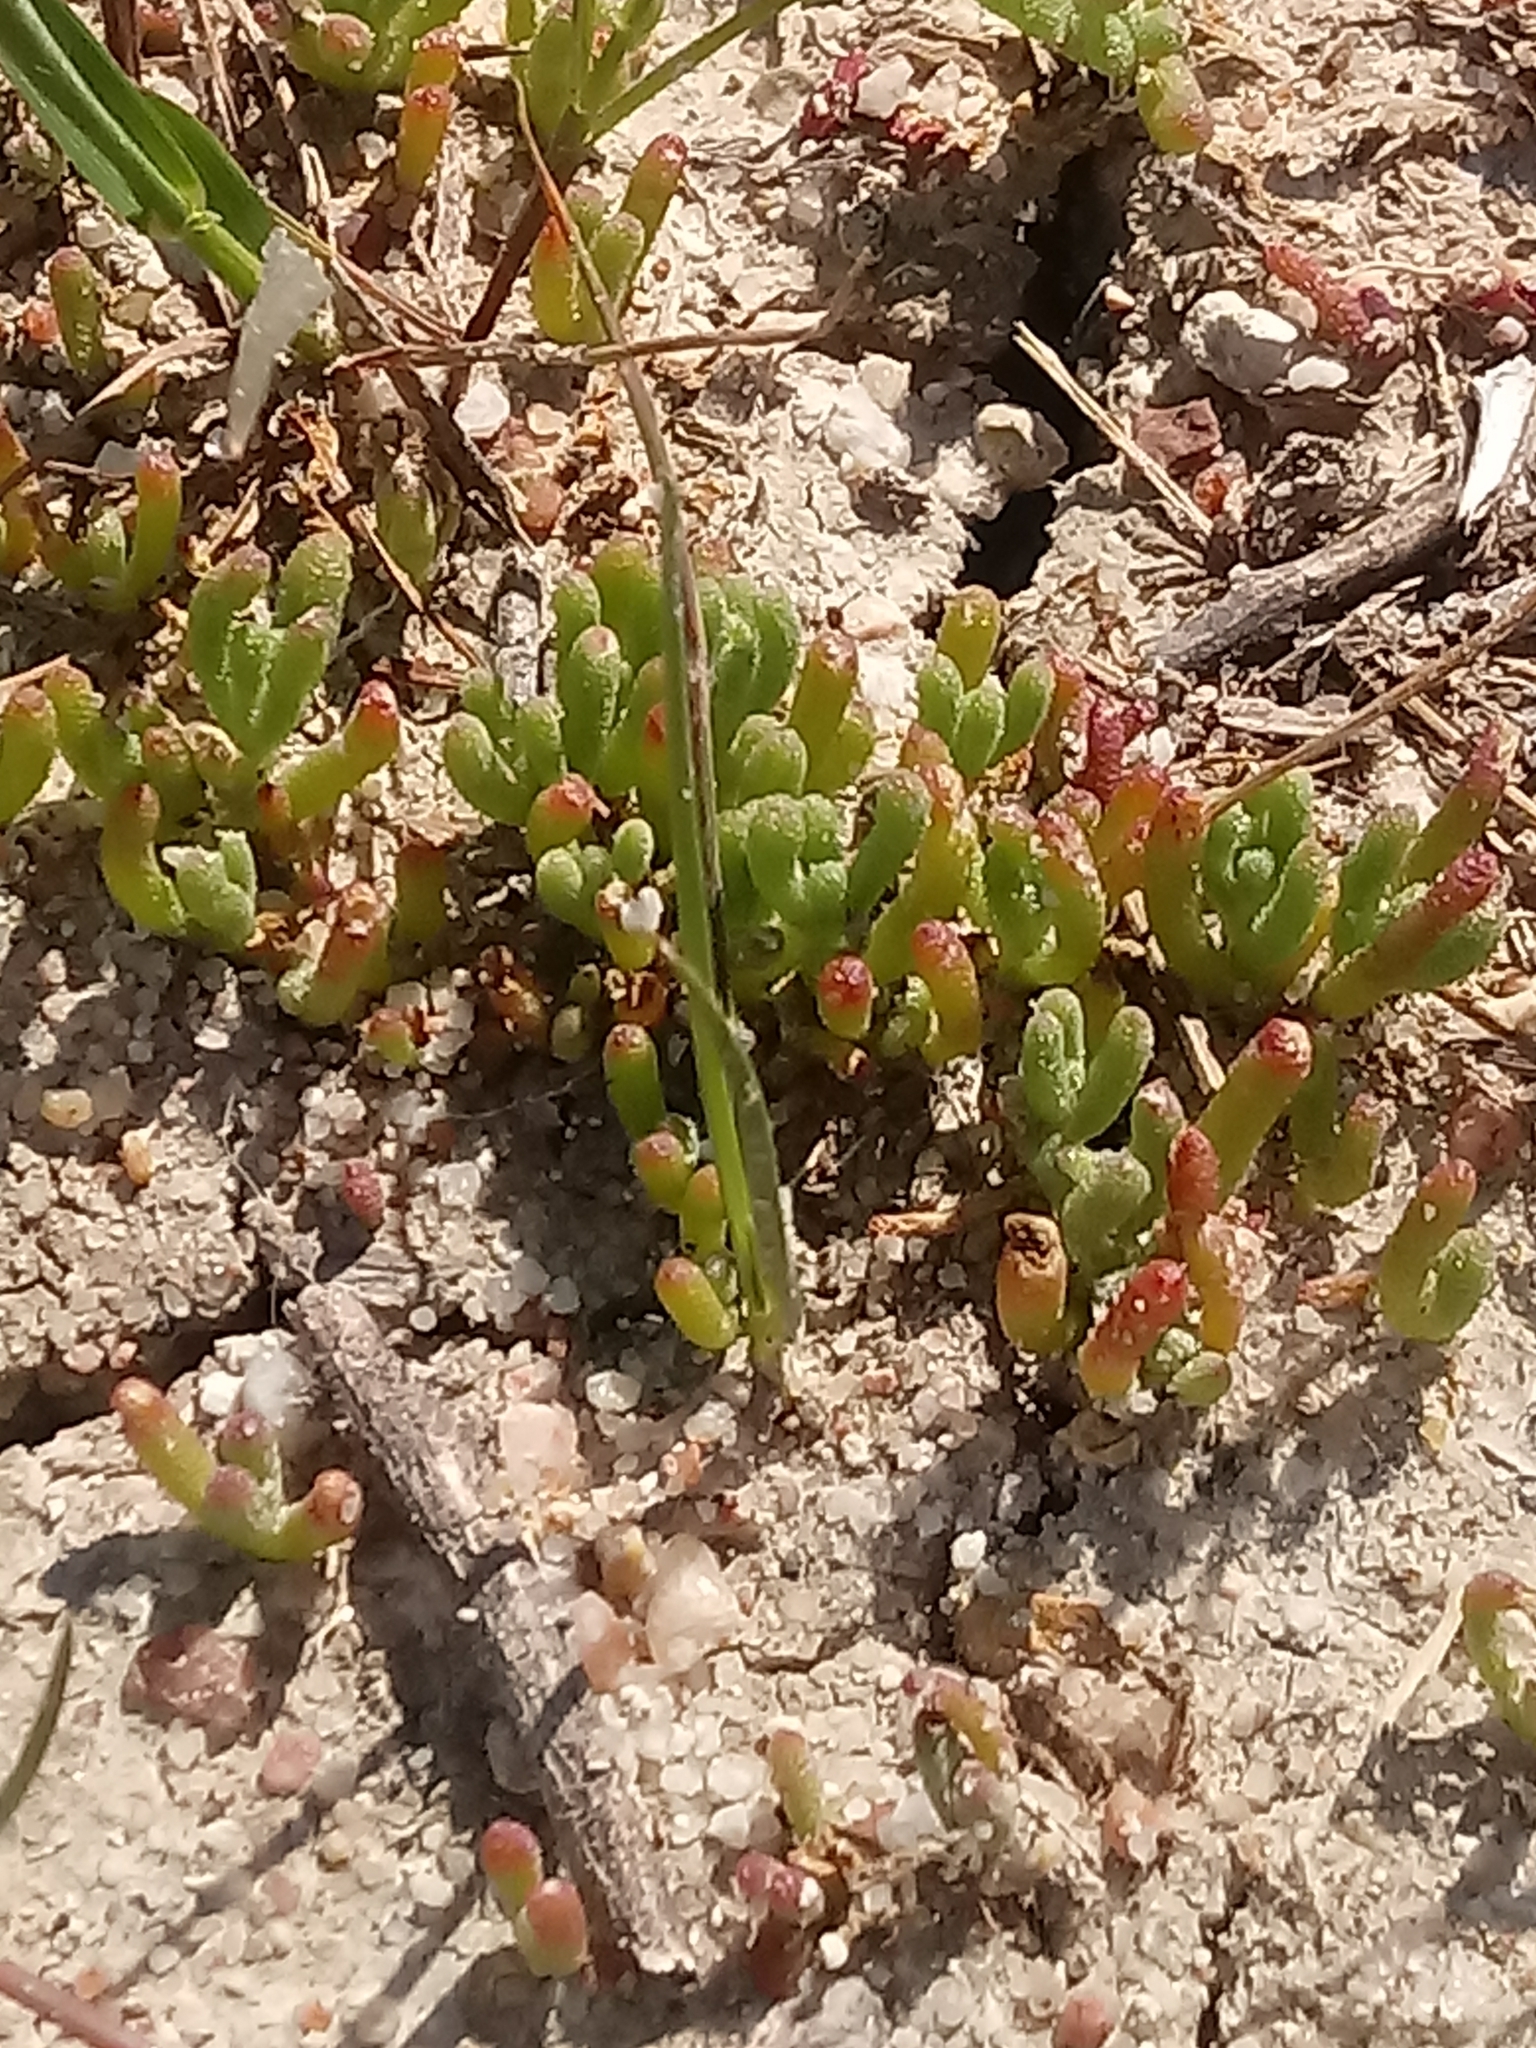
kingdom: Plantae
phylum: Tracheophyta
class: Magnoliopsida
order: Caryophyllales
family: Aizoaceae
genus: Mesembryanthemum
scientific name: Mesembryanthemum nodiflorum
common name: Slenderleaf iceplant
